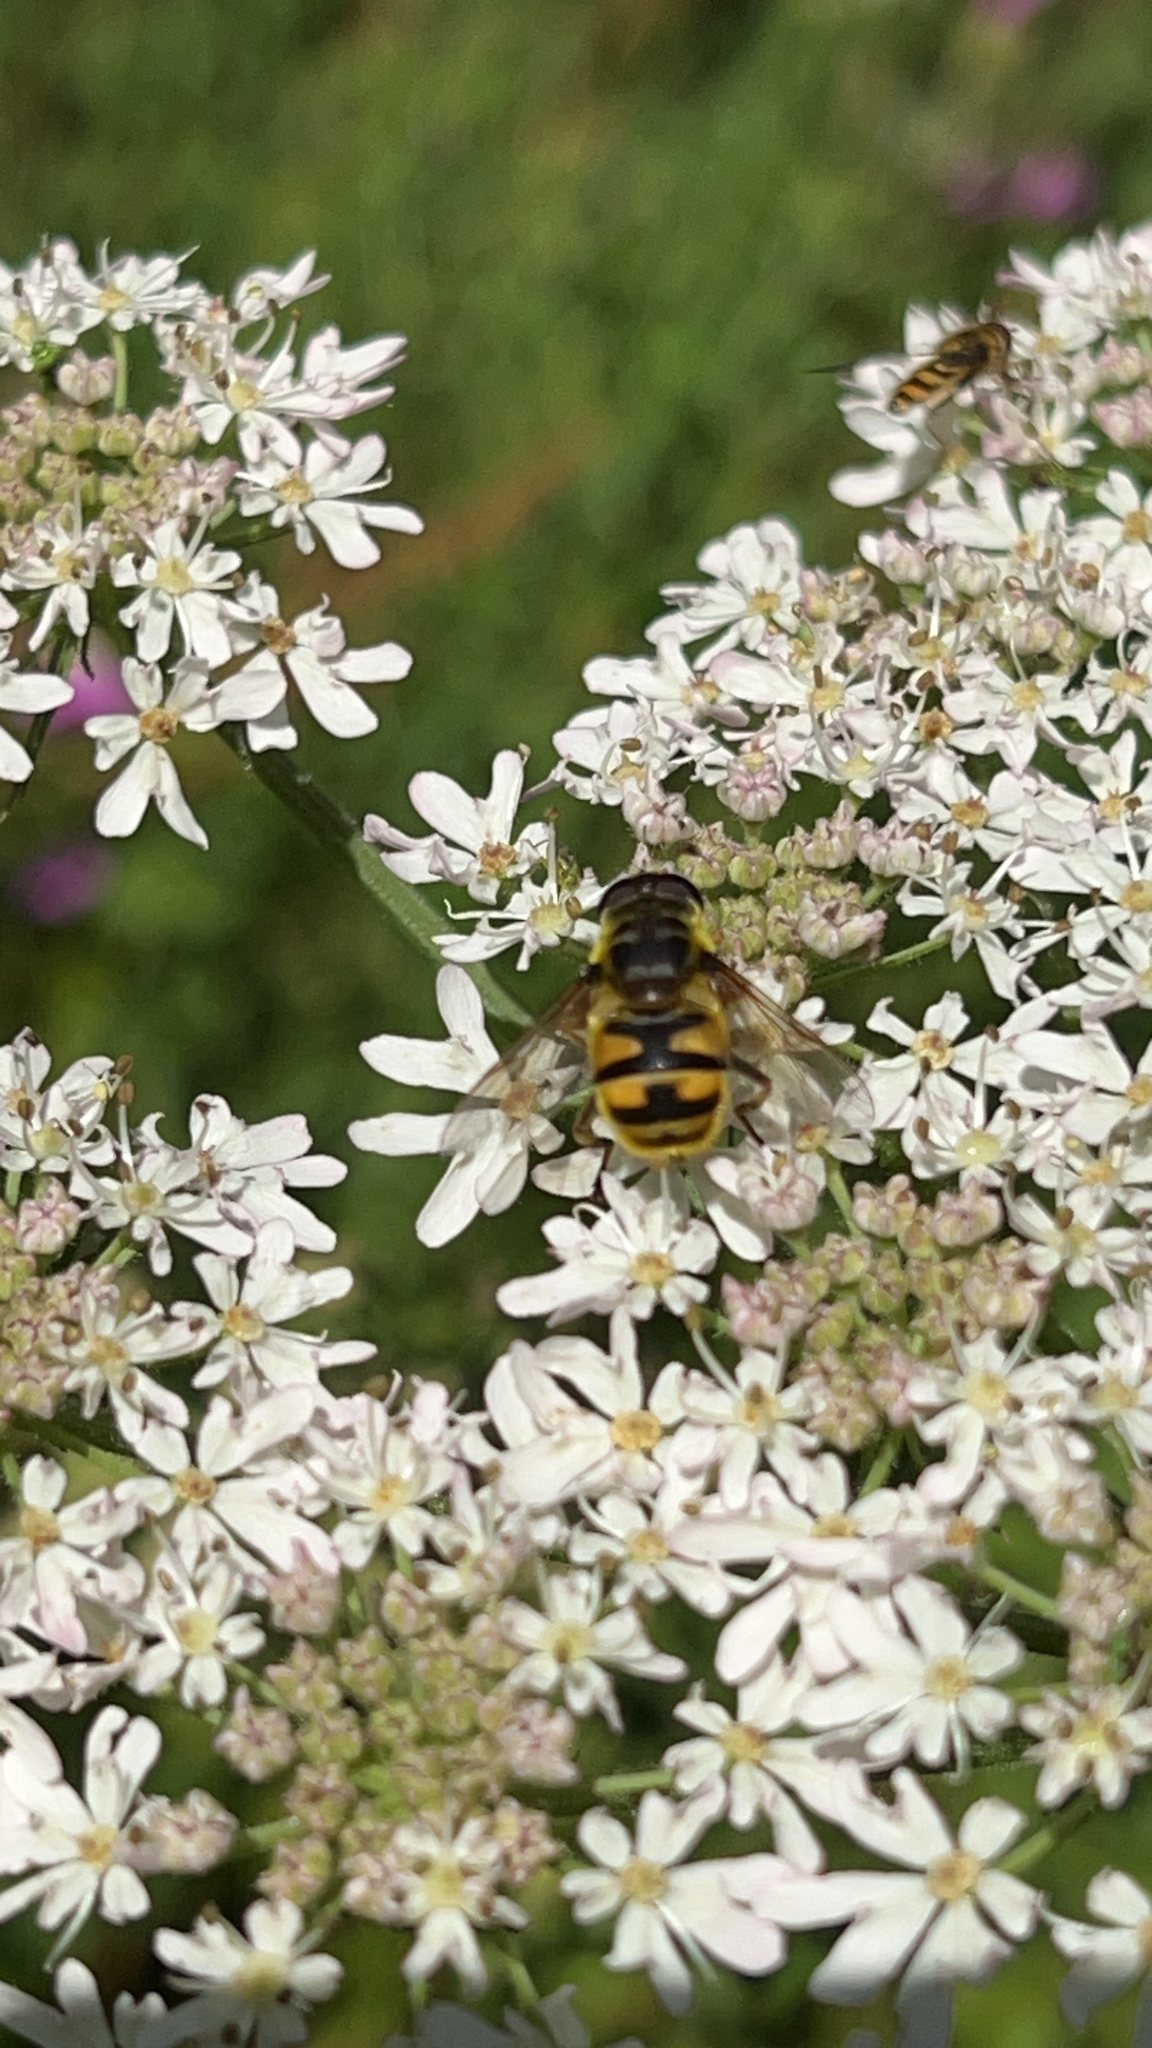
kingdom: Animalia
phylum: Arthropoda
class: Insecta
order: Diptera
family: Syrphidae
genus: Myathropa
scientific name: Myathropa florea
